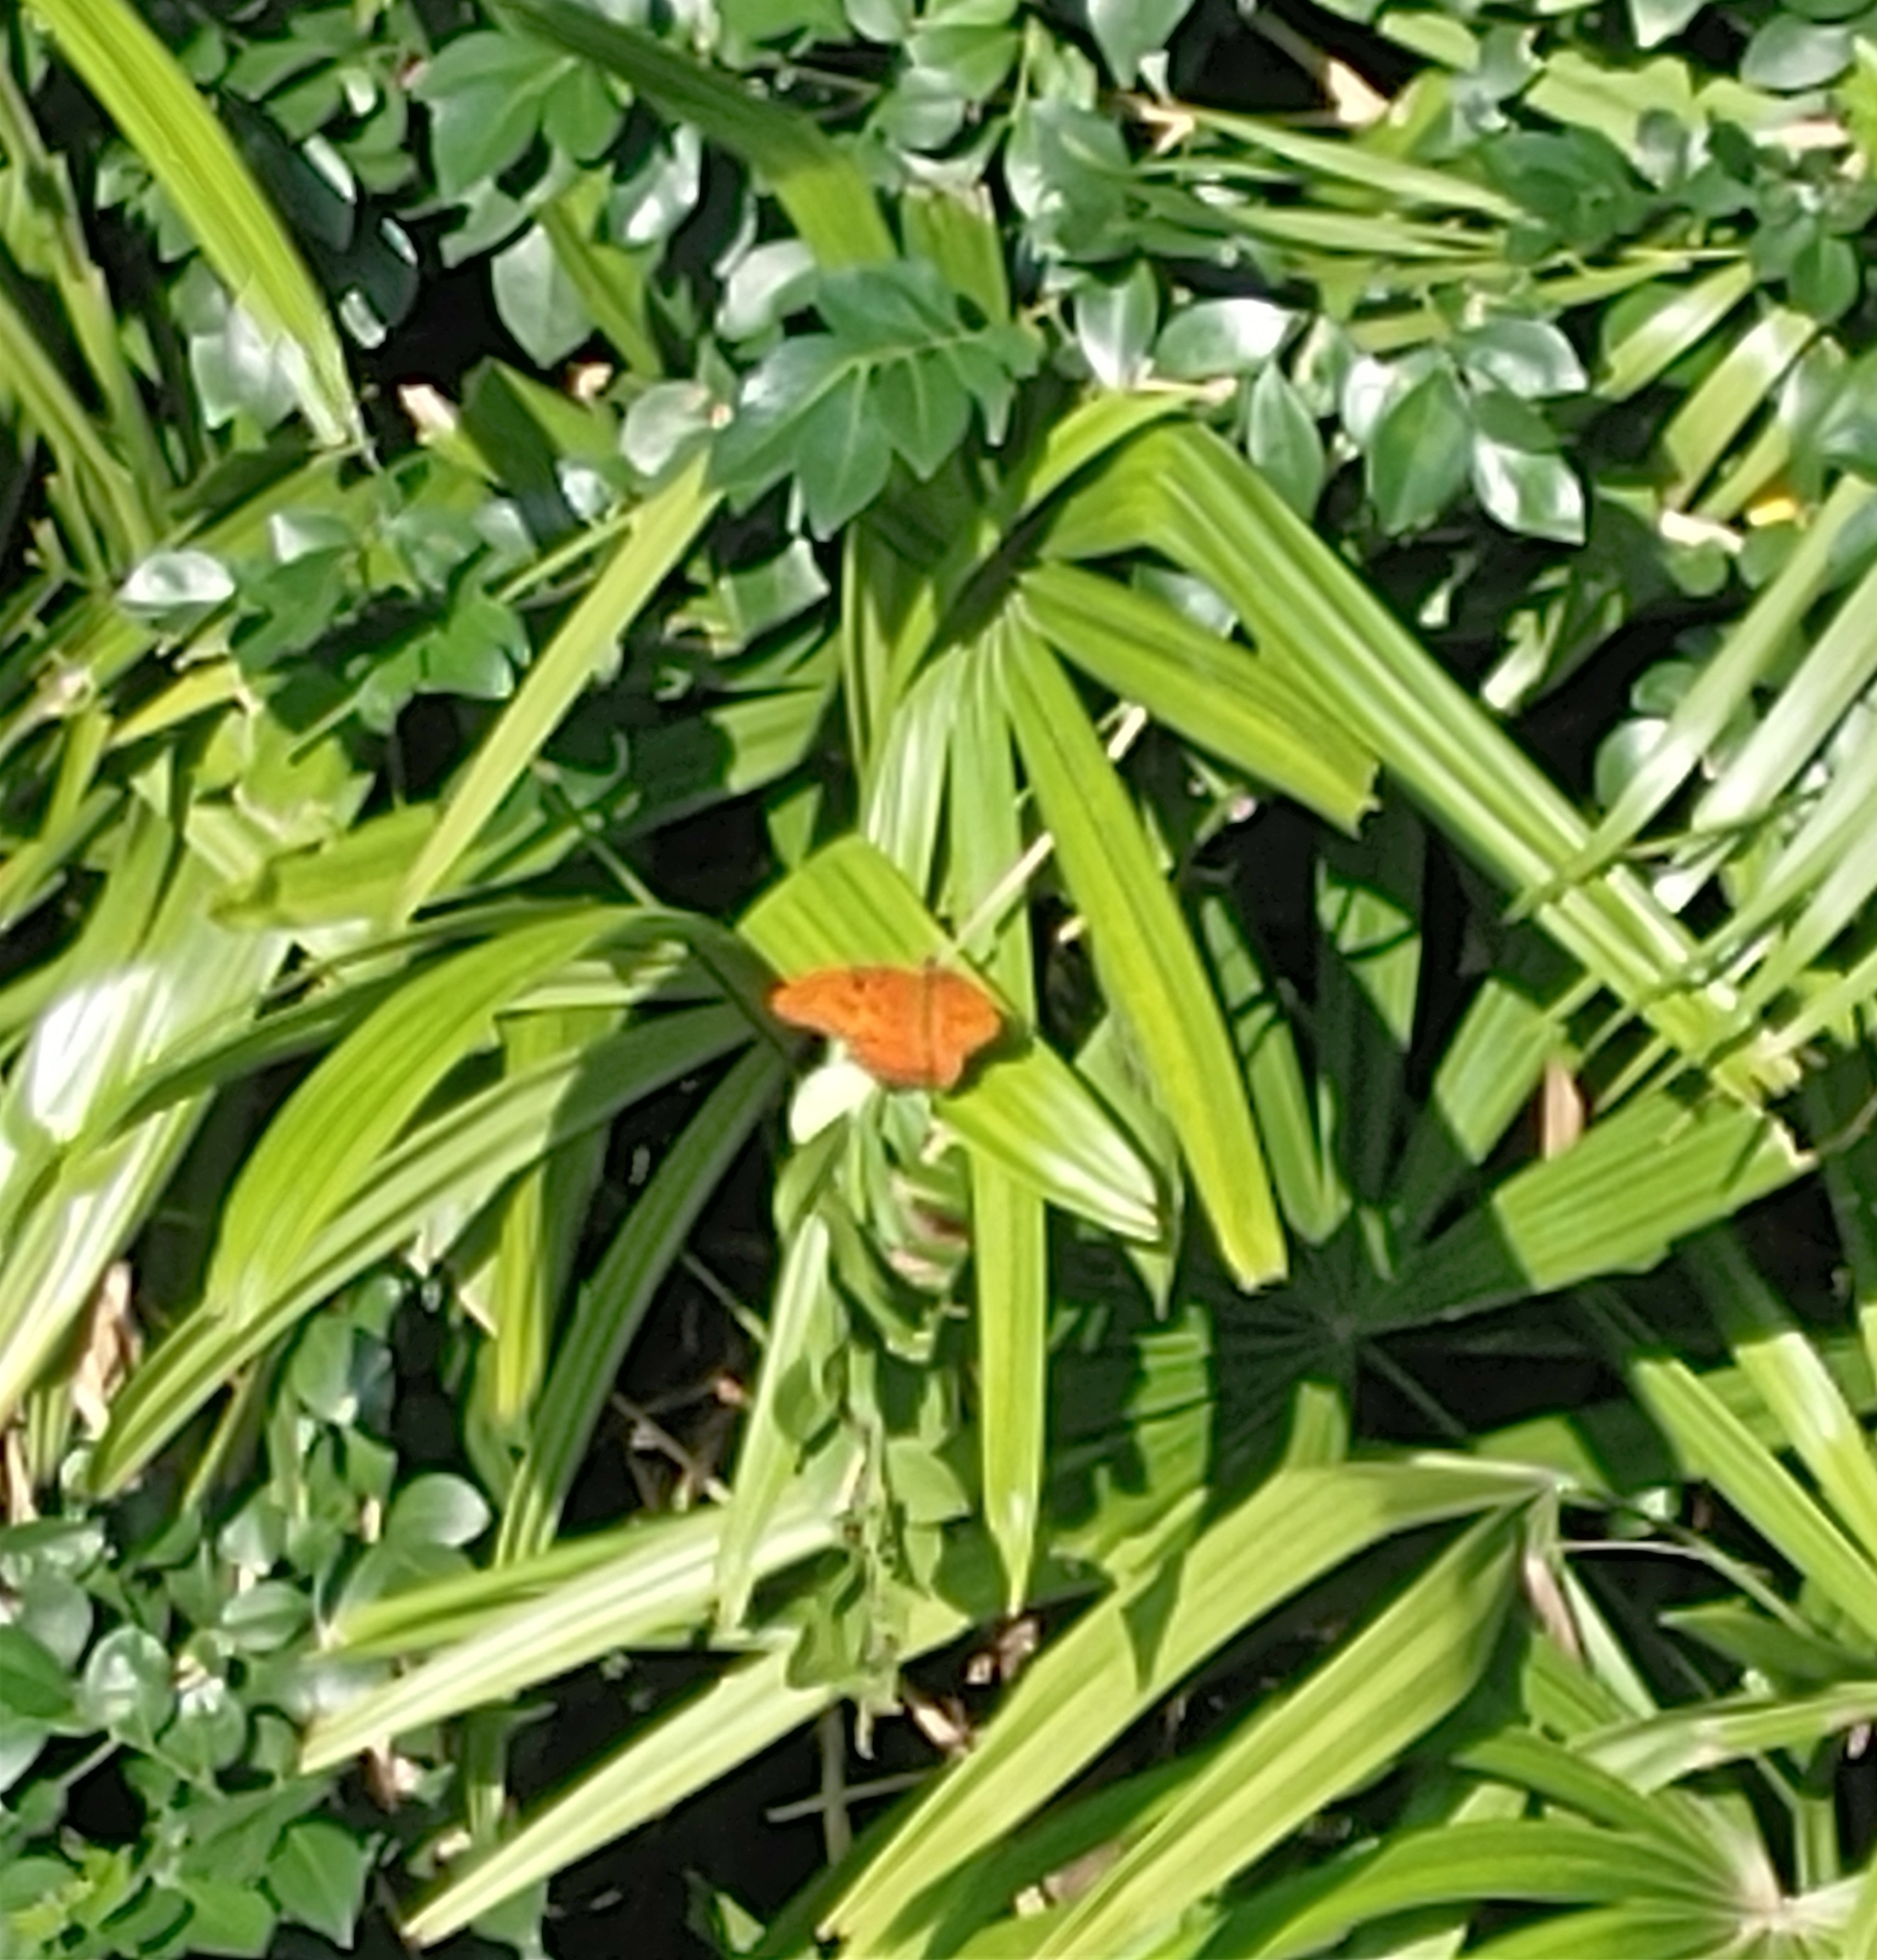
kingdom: Animalia
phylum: Arthropoda
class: Insecta
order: Lepidoptera
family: Nymphalidae
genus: Dione
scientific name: Dione vanillae
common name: Gulf fritillary
